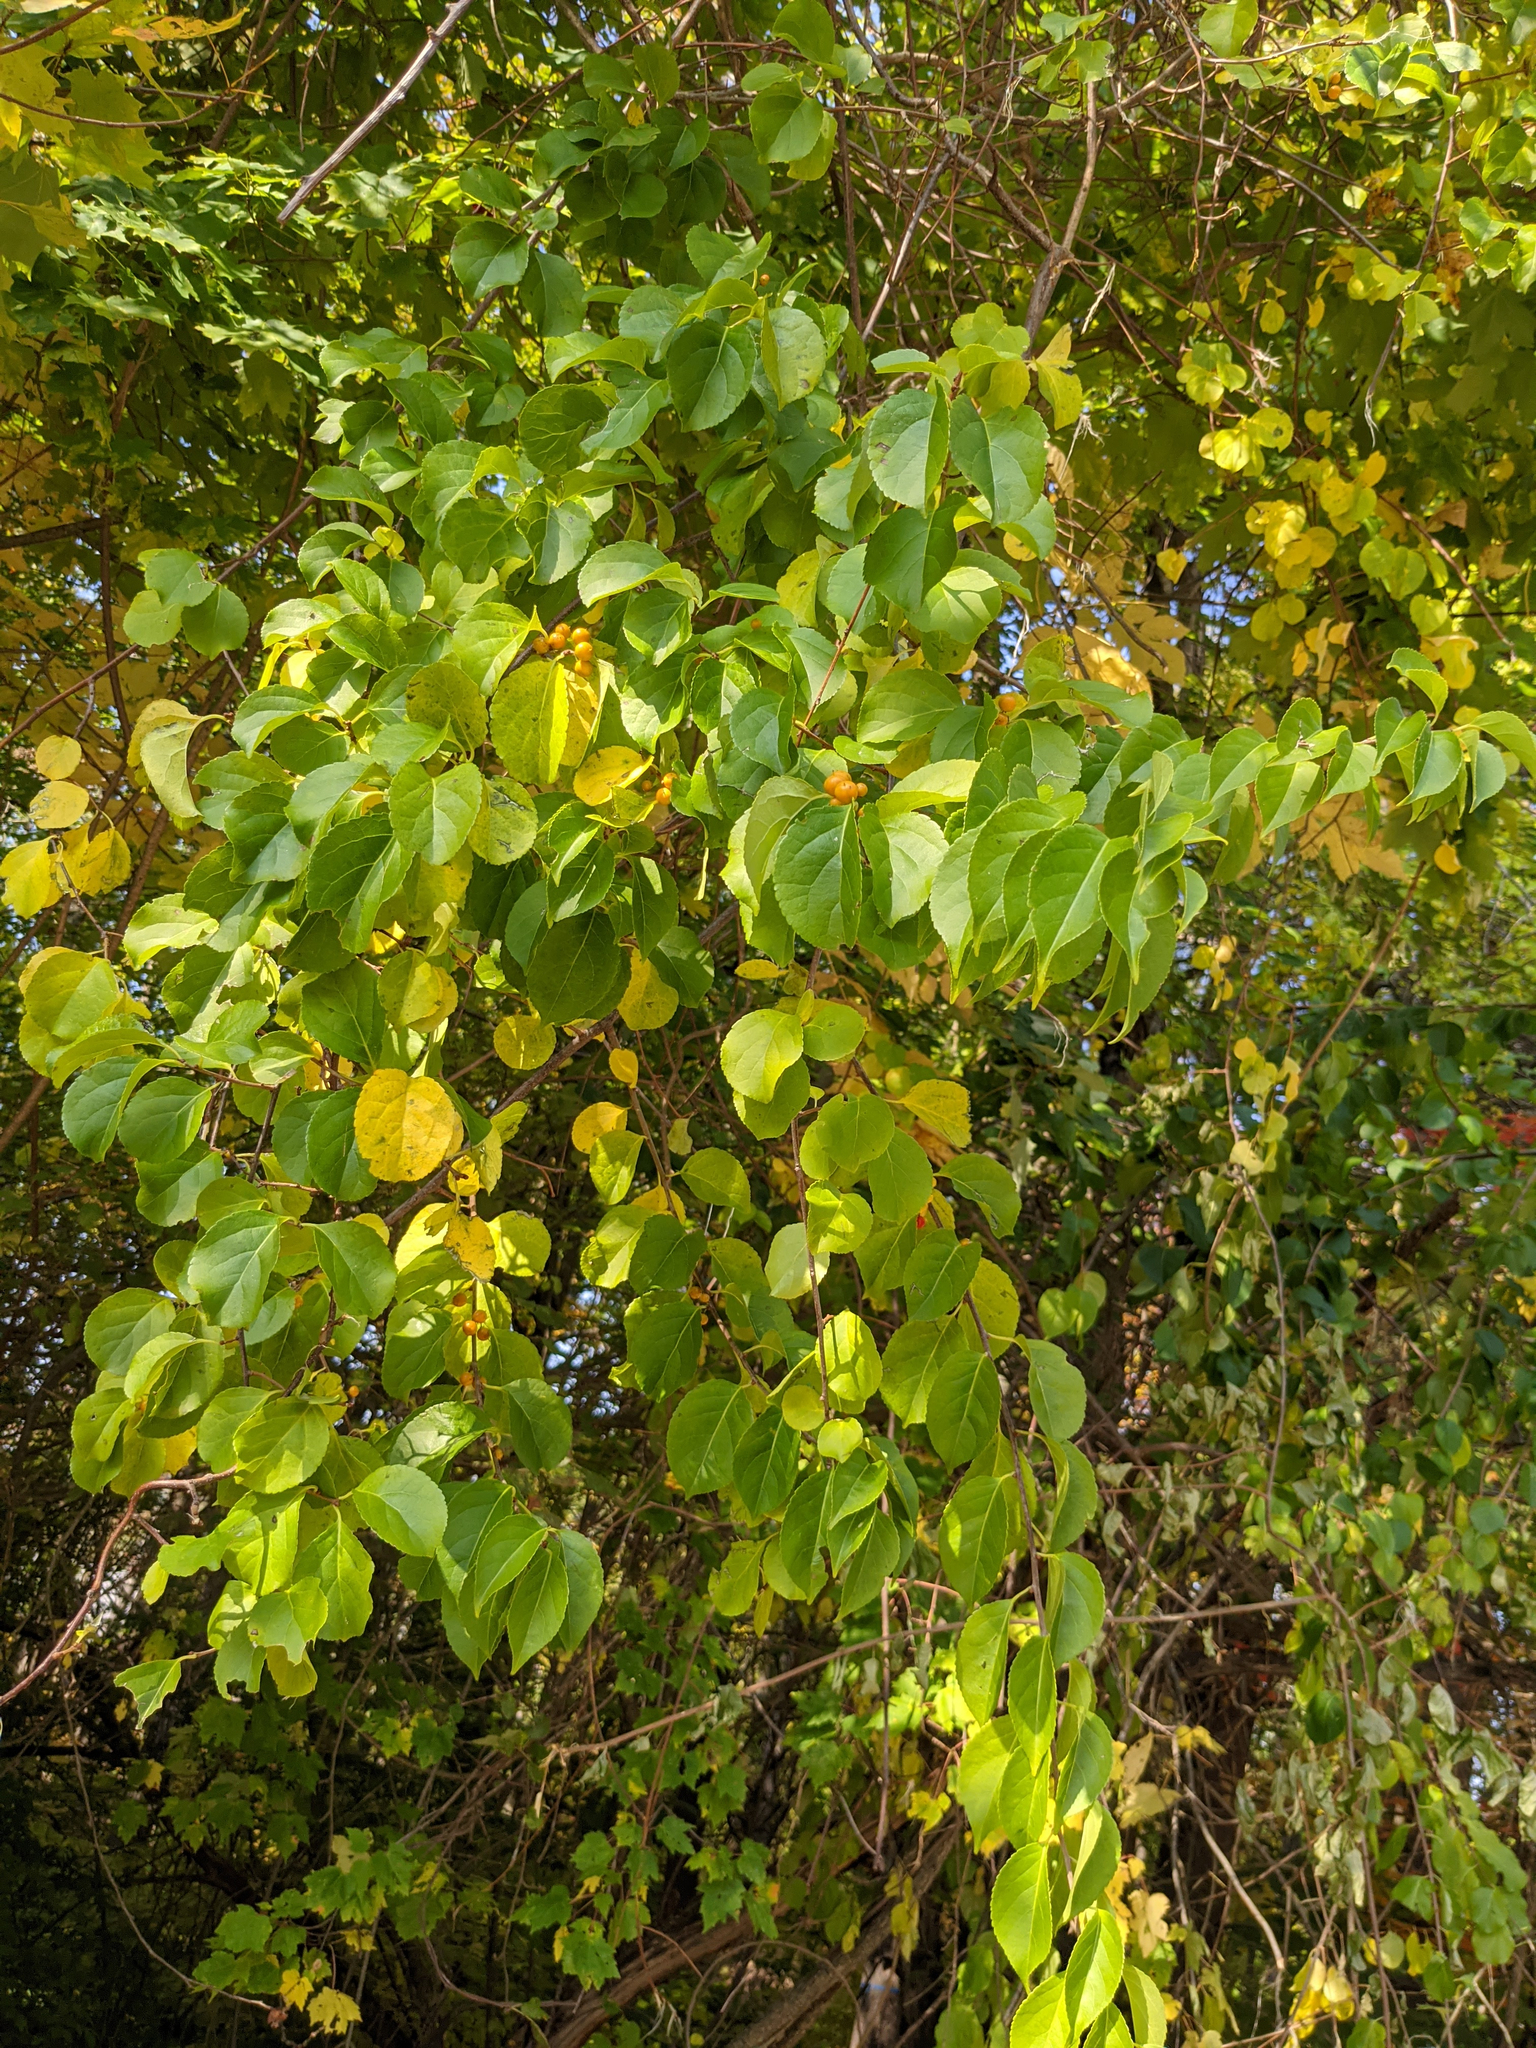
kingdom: Plantae
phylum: Tracheophyta
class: Magnoliopsida
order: Celastrales
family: Celastraceae
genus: Celastrus
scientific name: Celastrus orbiculatus
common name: Oriental bittersweet
